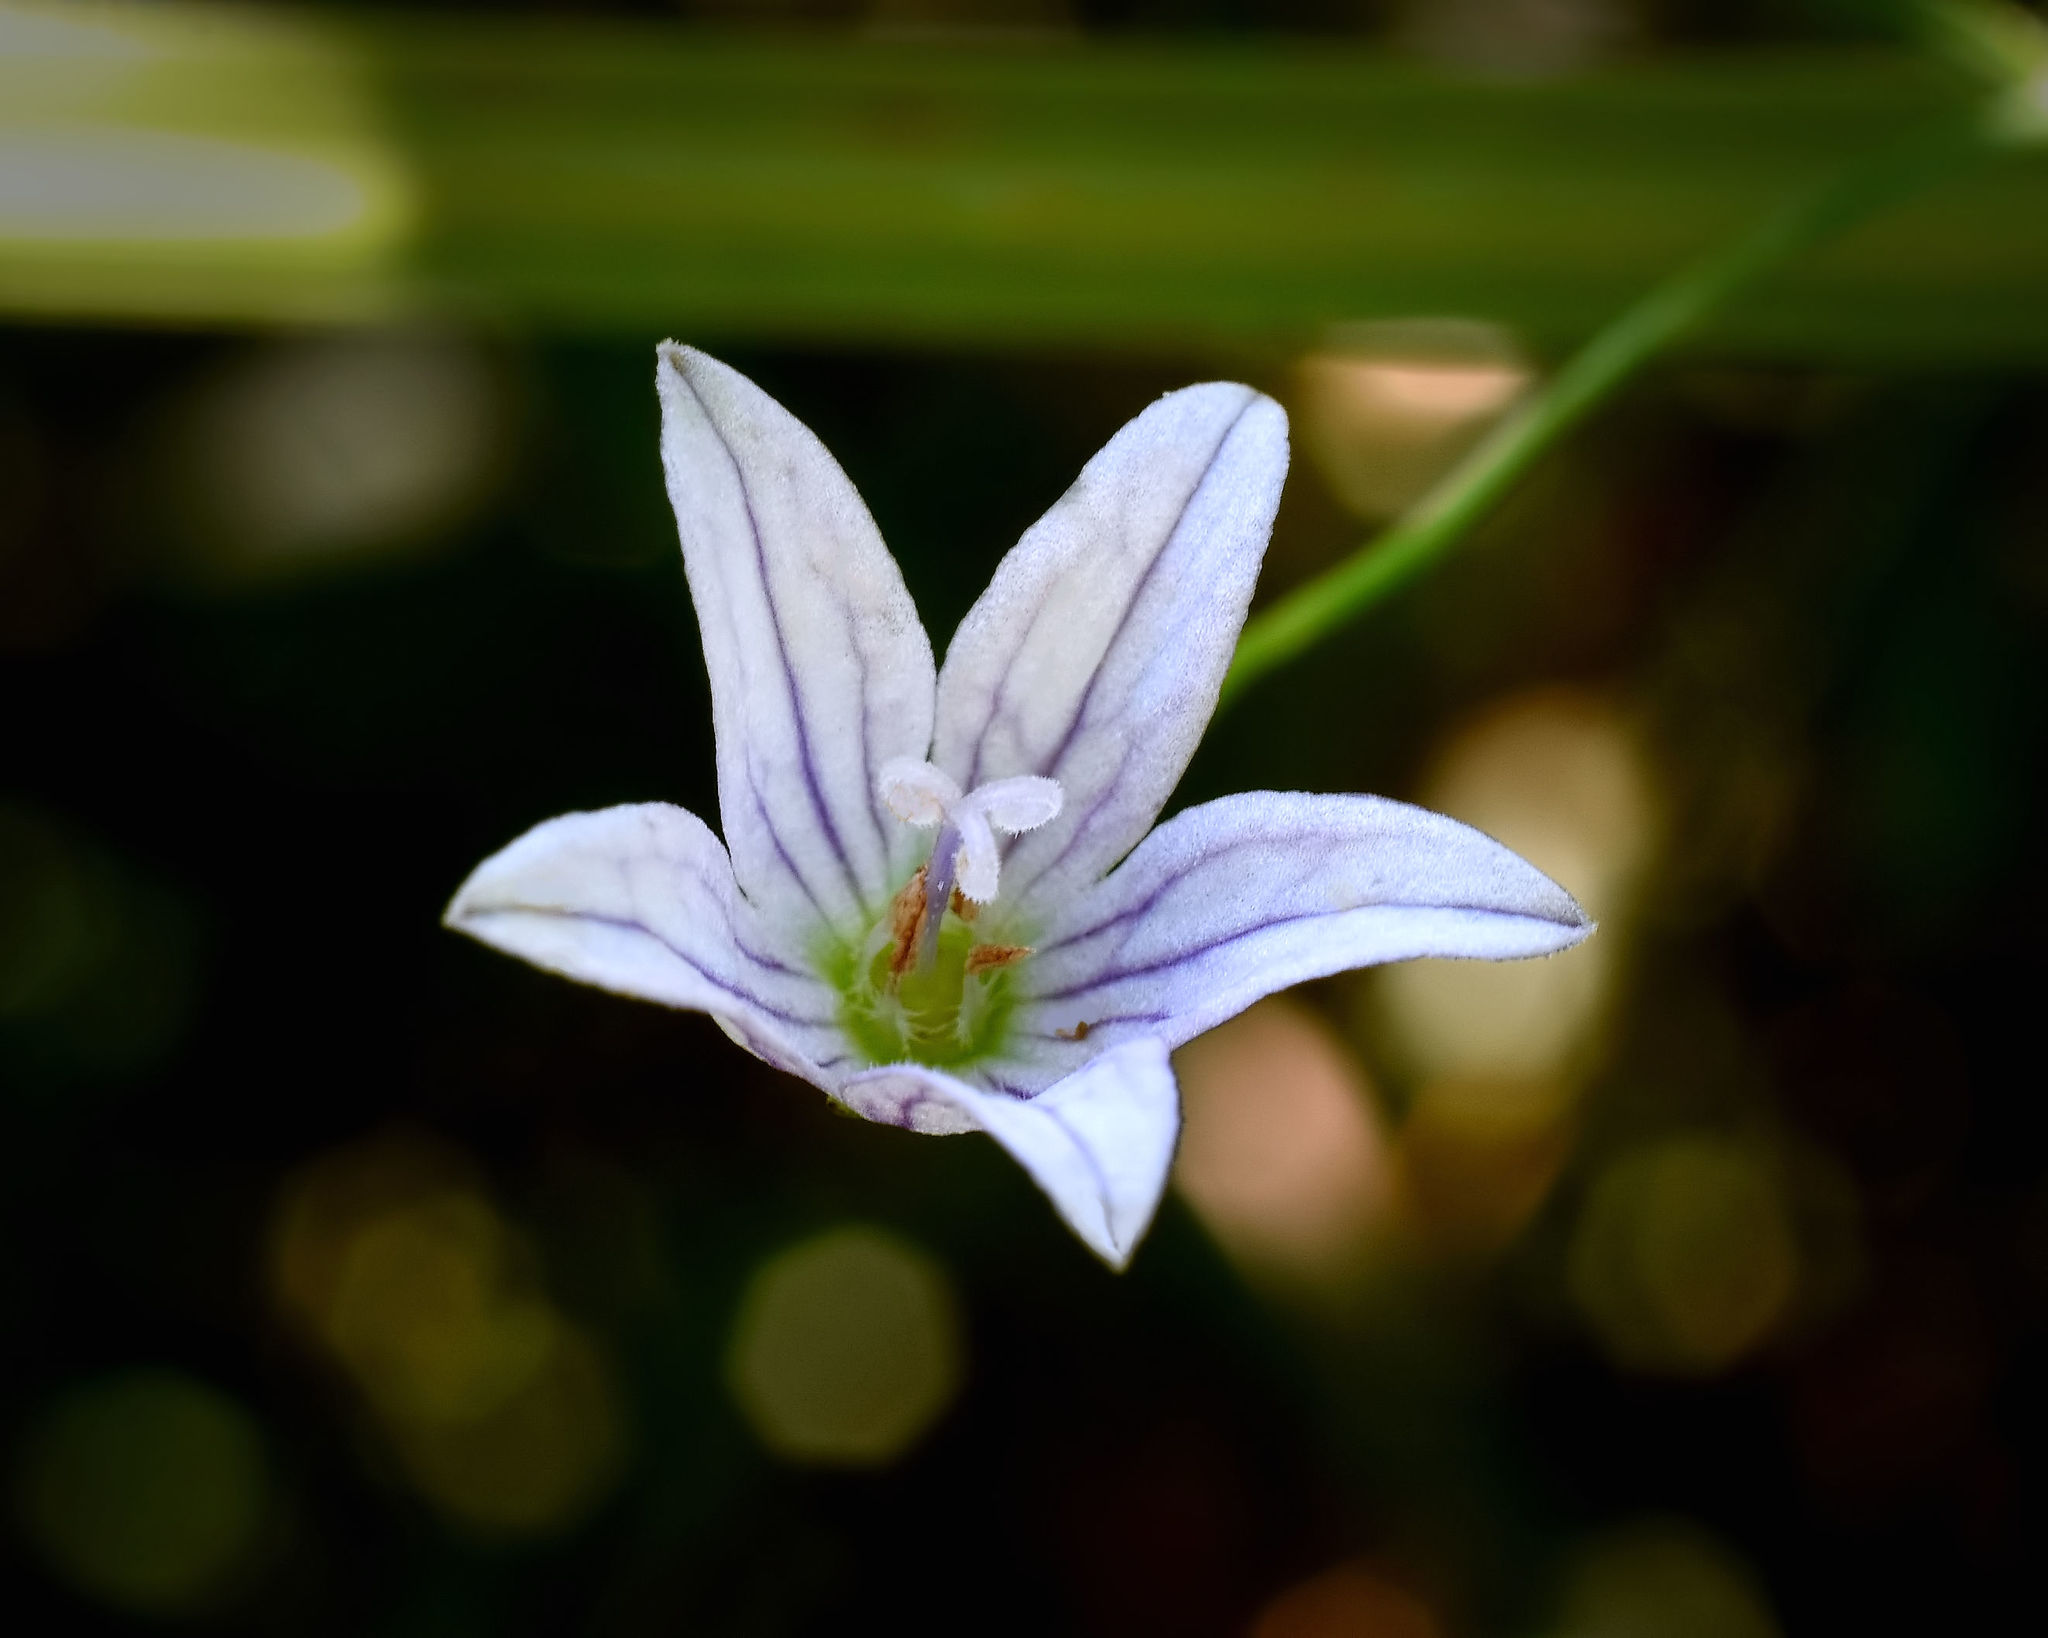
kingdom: Plantae
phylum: Tracheophyta
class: Magnoliopsida
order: Asterales
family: Campanulaceae
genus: Palustricodon
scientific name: Palustricodon aparinoides
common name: Bedstraw bellflower
